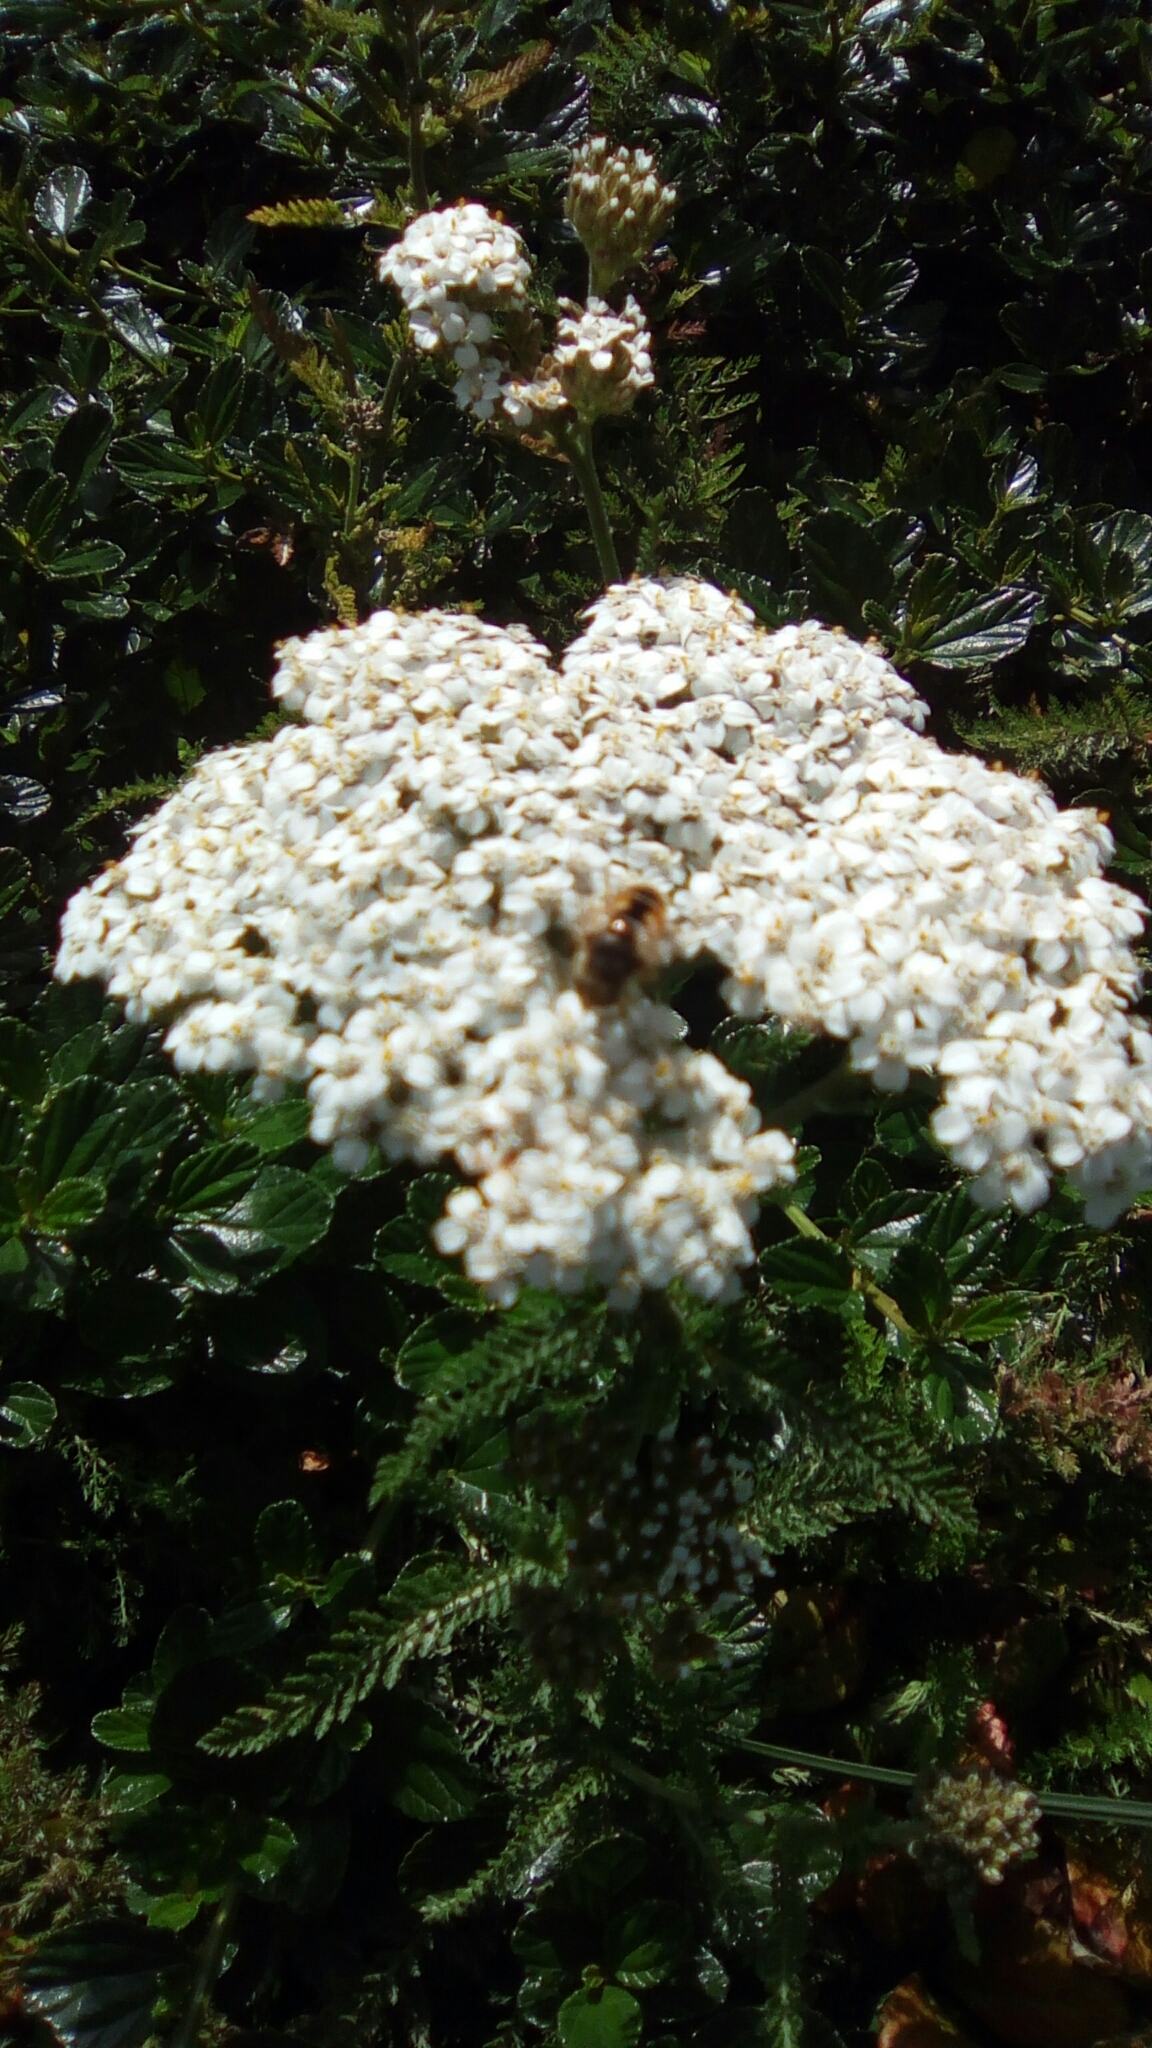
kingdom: Plantae
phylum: Tracheophyta
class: Magnoliopsida
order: Asterales
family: Asteraceae
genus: Achillea
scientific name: Achillea millefolium
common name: Yarrow
